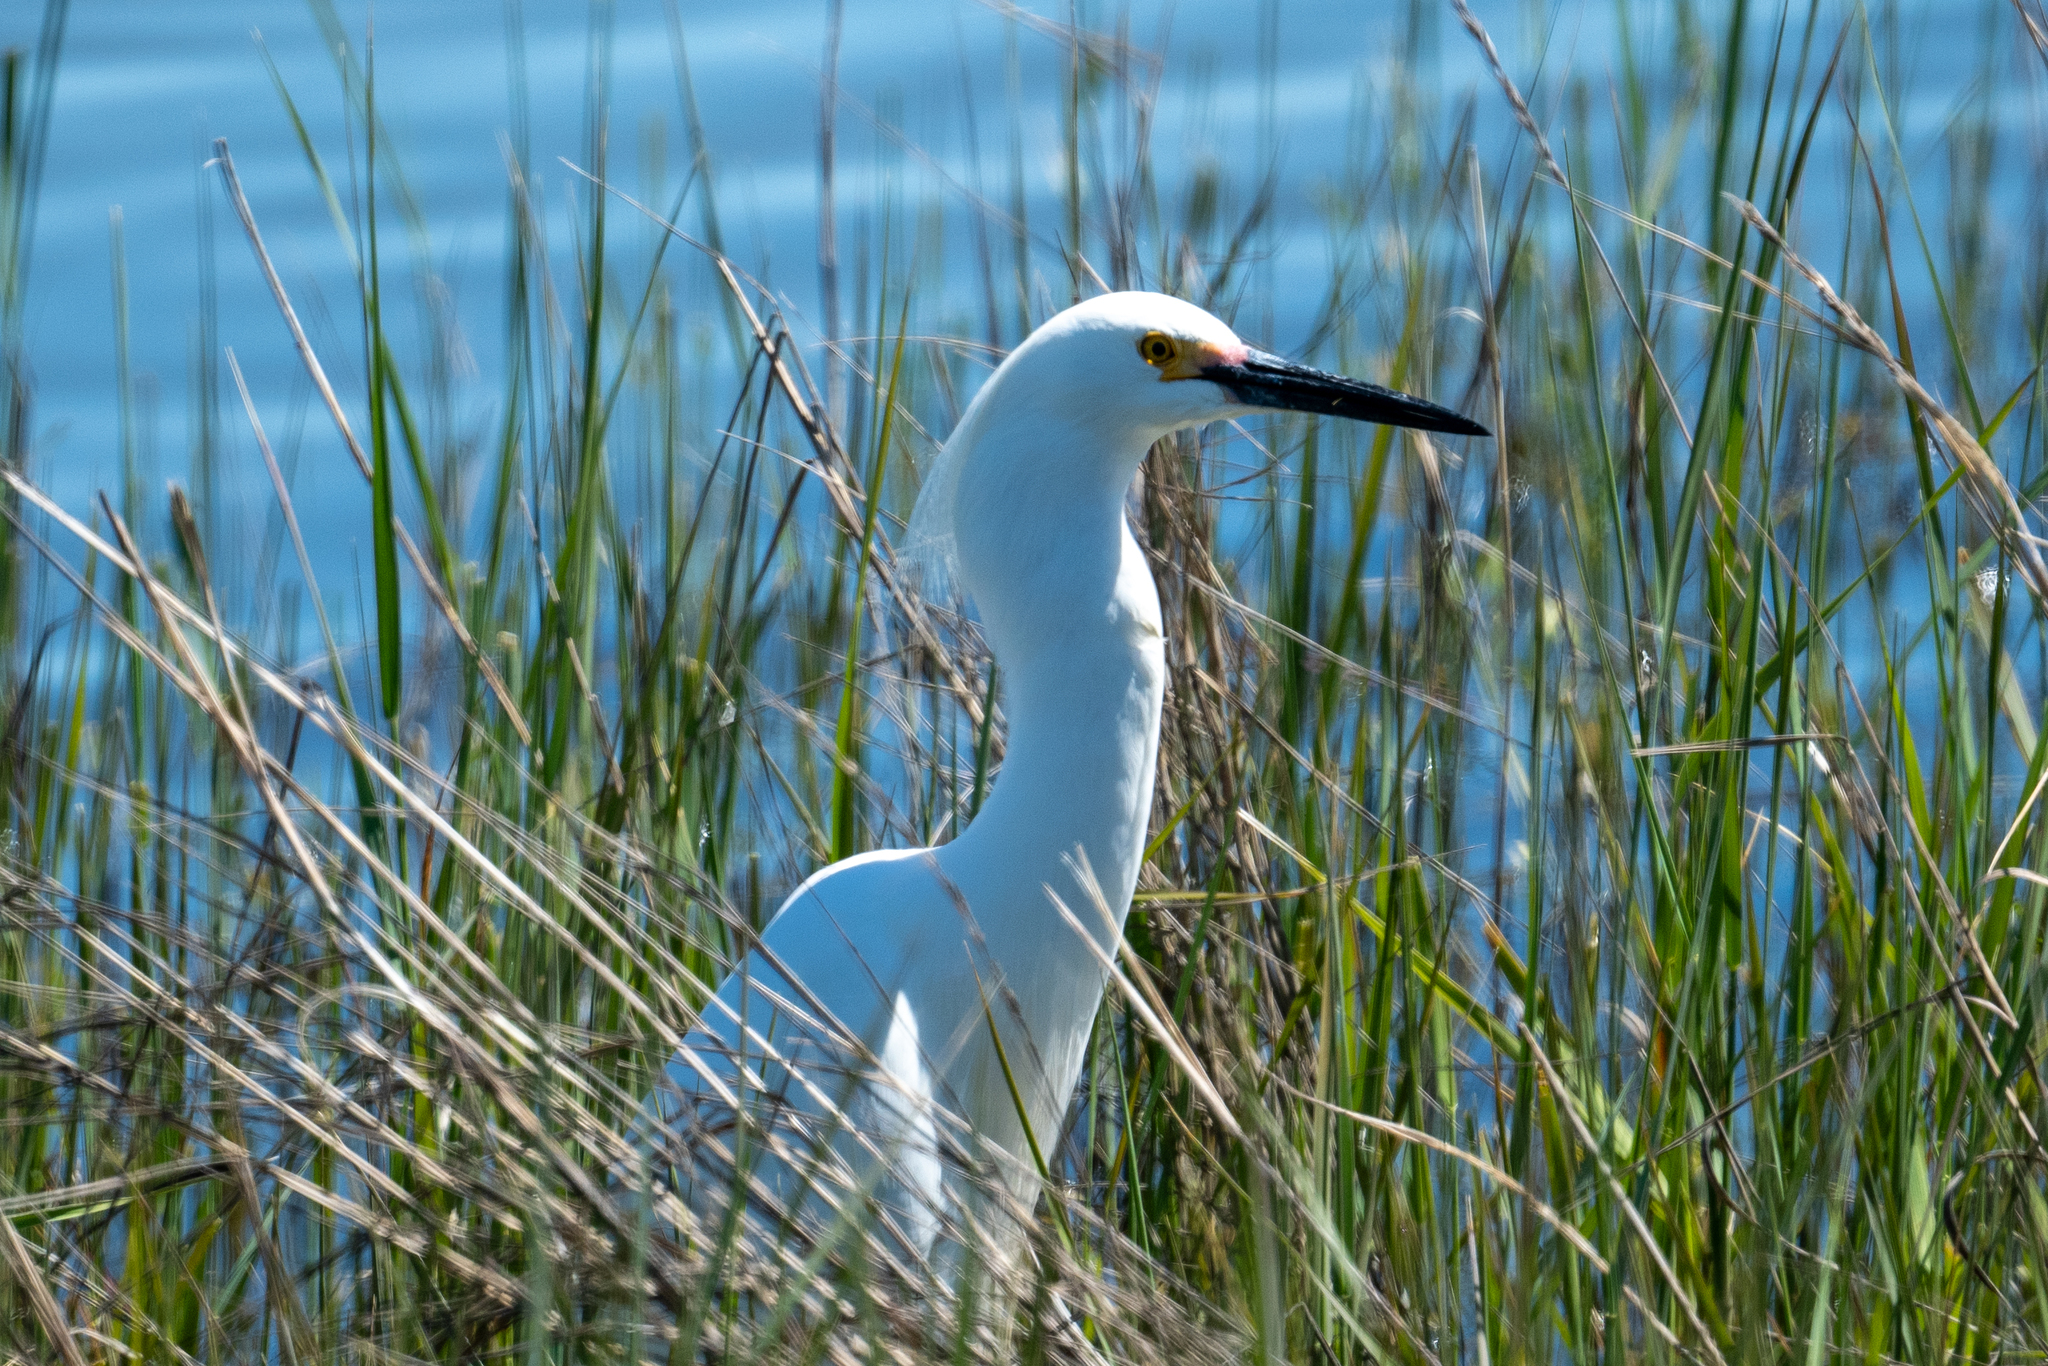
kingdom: Animalia
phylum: Chordata
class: Aves
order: Pelecaniformes
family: Ardeidae
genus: Egretta
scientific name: Egretta thula
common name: Snowy egret
